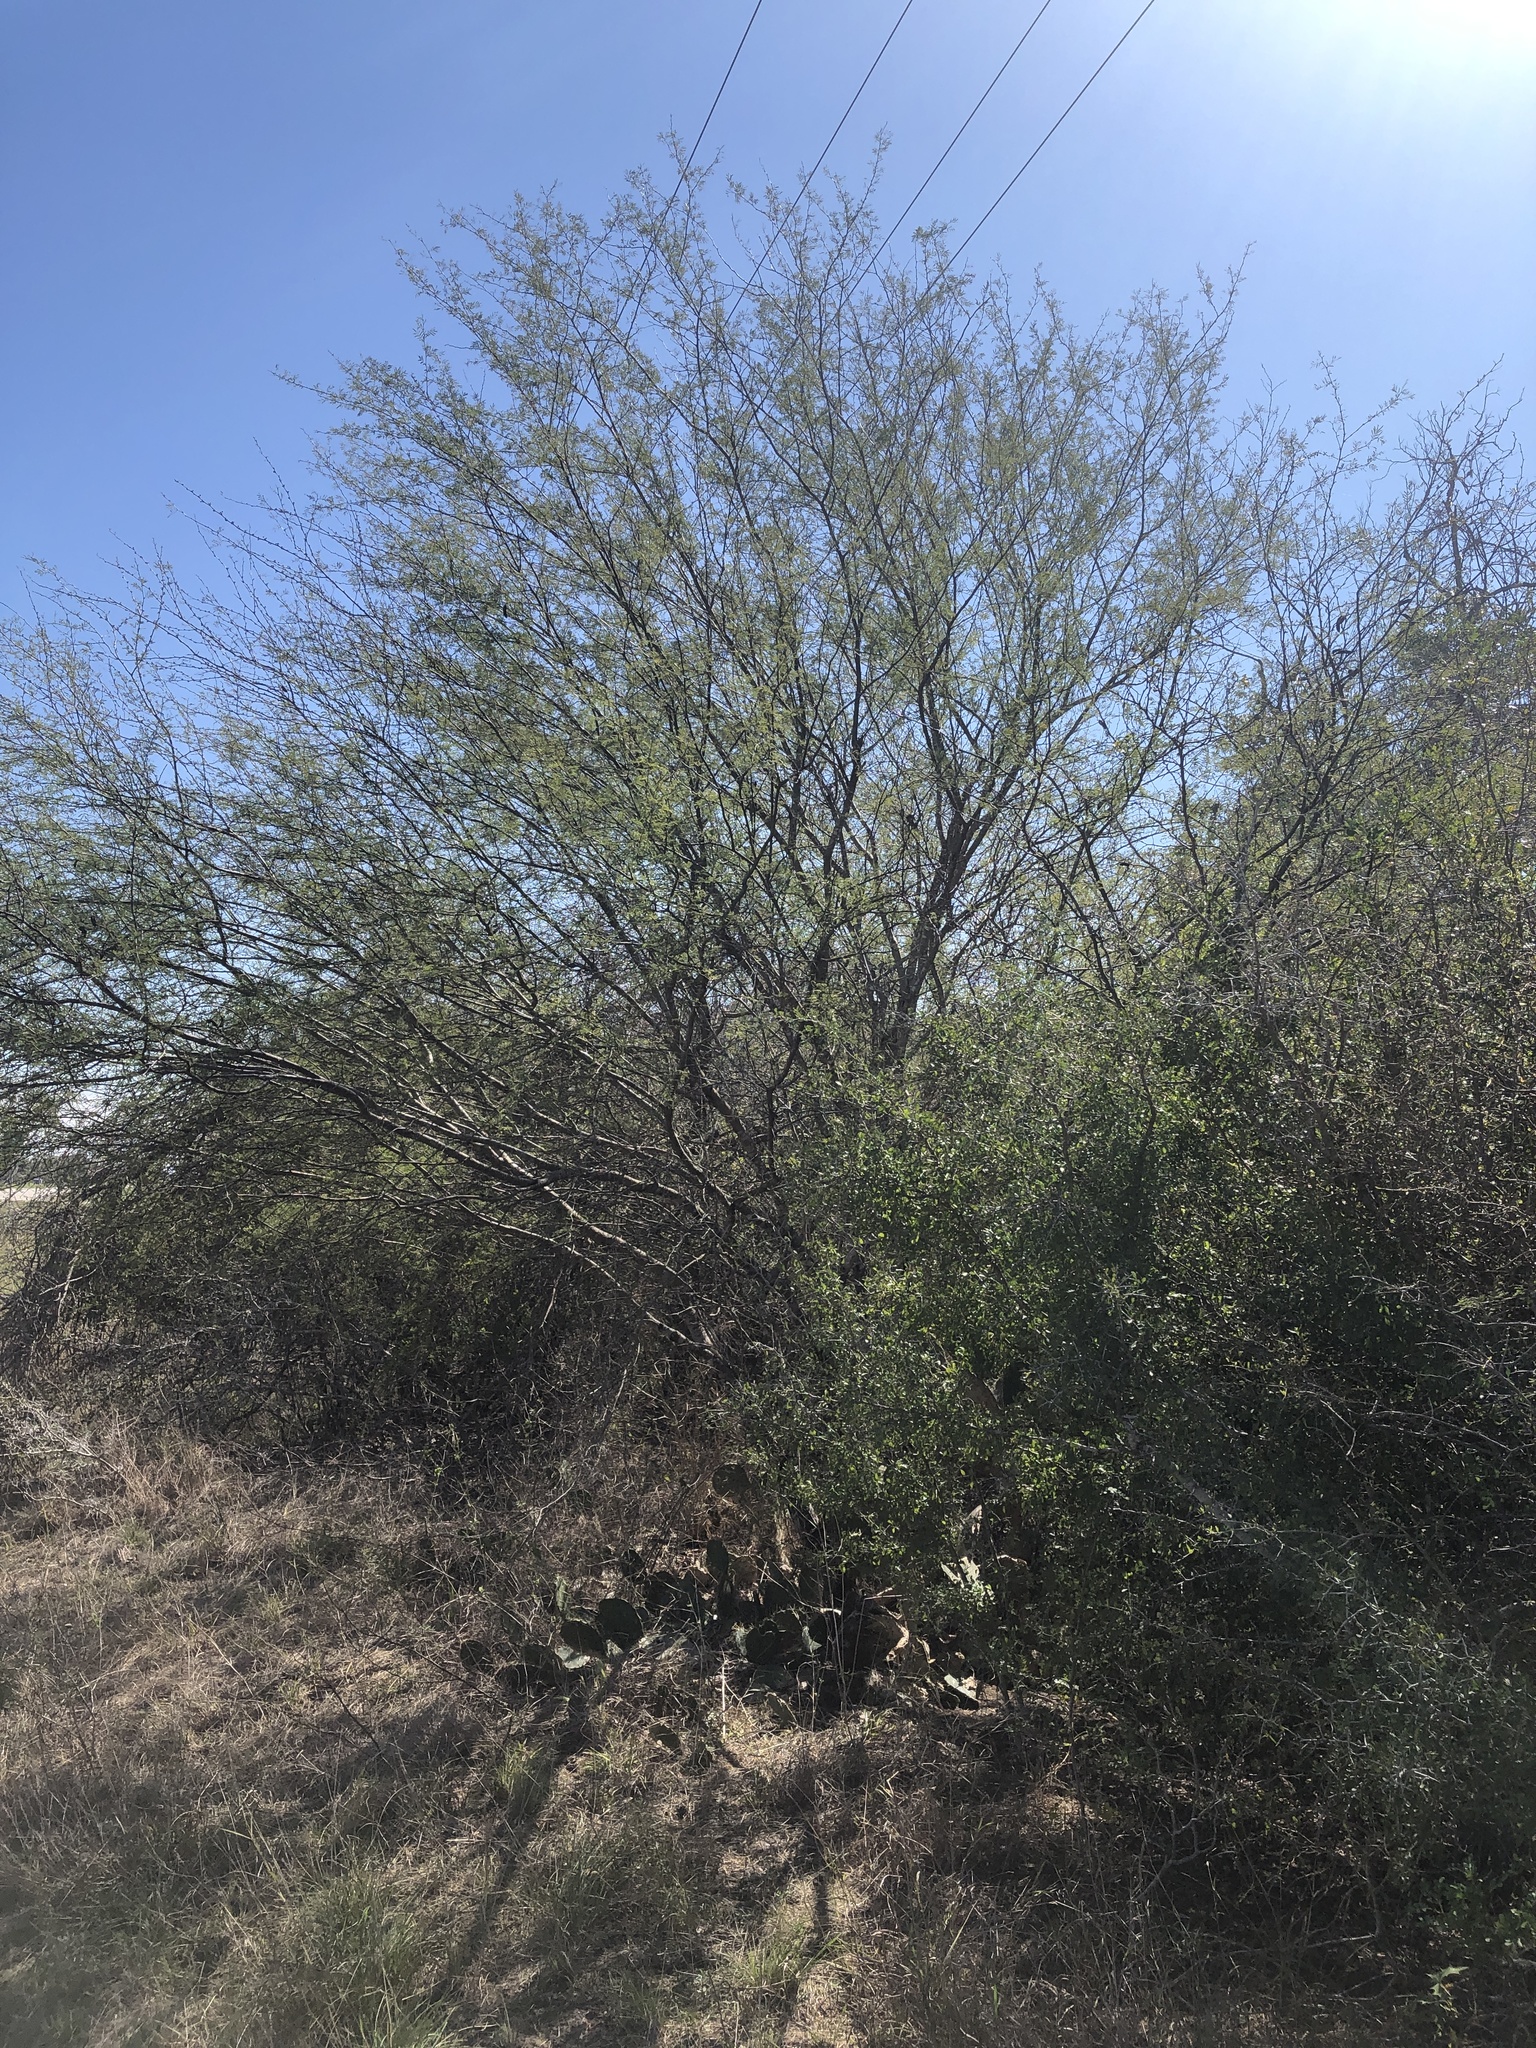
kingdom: Plantae
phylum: Tracheophyta
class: Magnoliopsida
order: Fabales
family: Fabaceae
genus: Vachellia
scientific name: Vachellia farnesiana
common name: Sweet acacia
